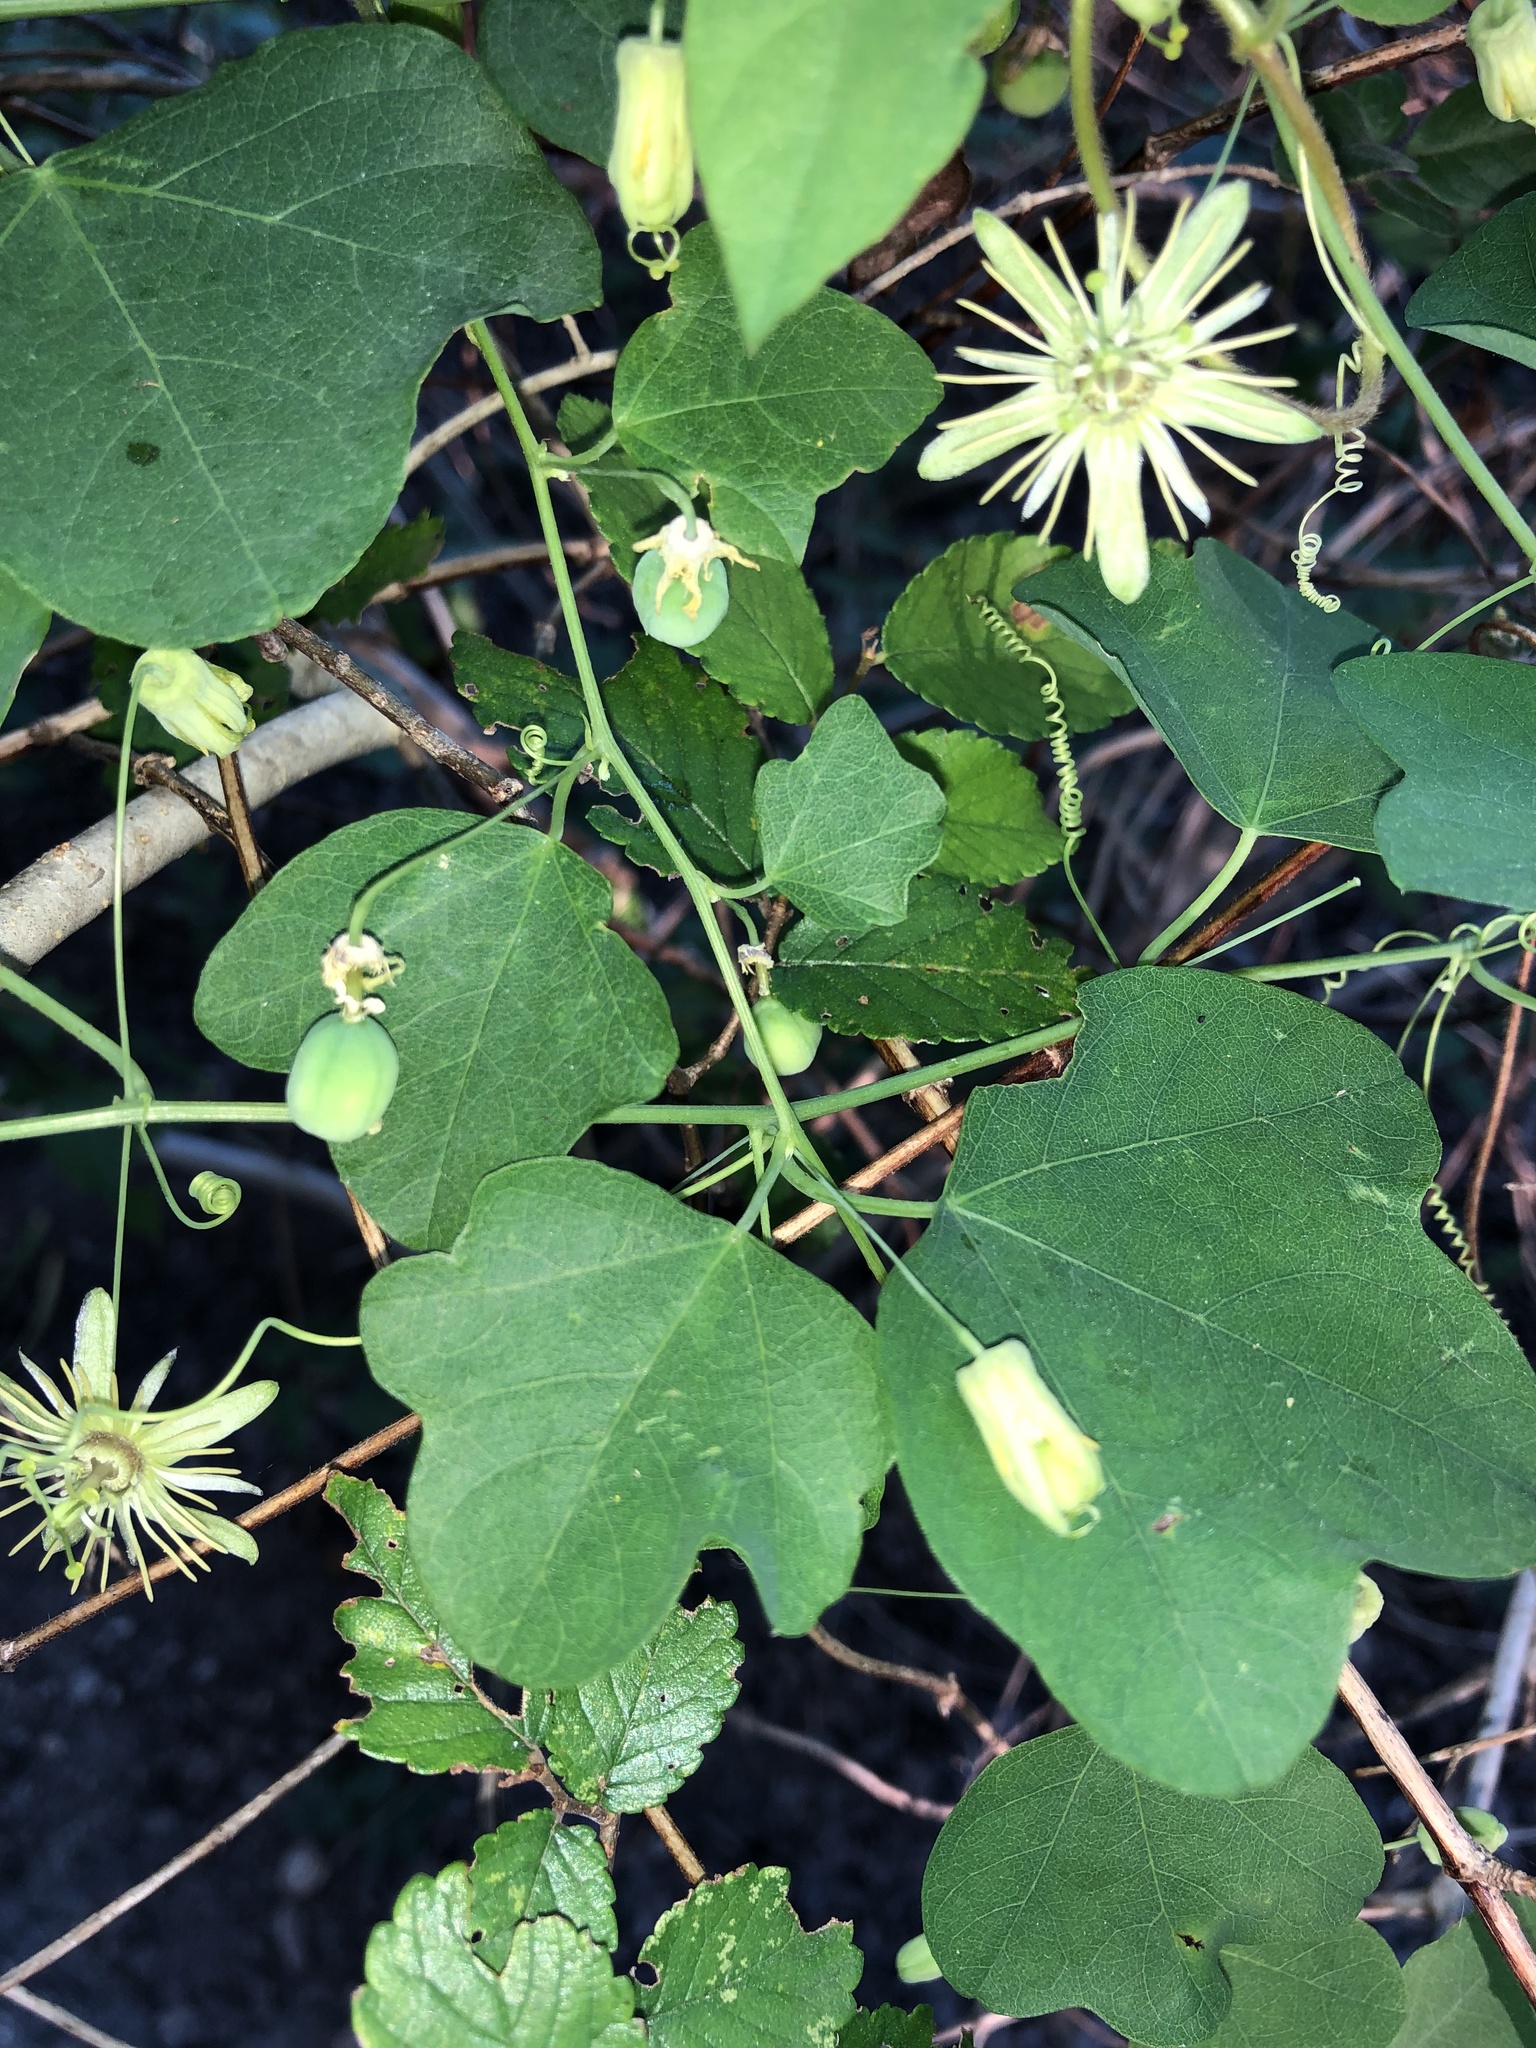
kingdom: Plantae
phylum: Tracheophyta
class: Magnoliopsida
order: Malpighiales
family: Passifloraceae
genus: Passiflora
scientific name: Passiflora lutea
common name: Yellow passionflower
